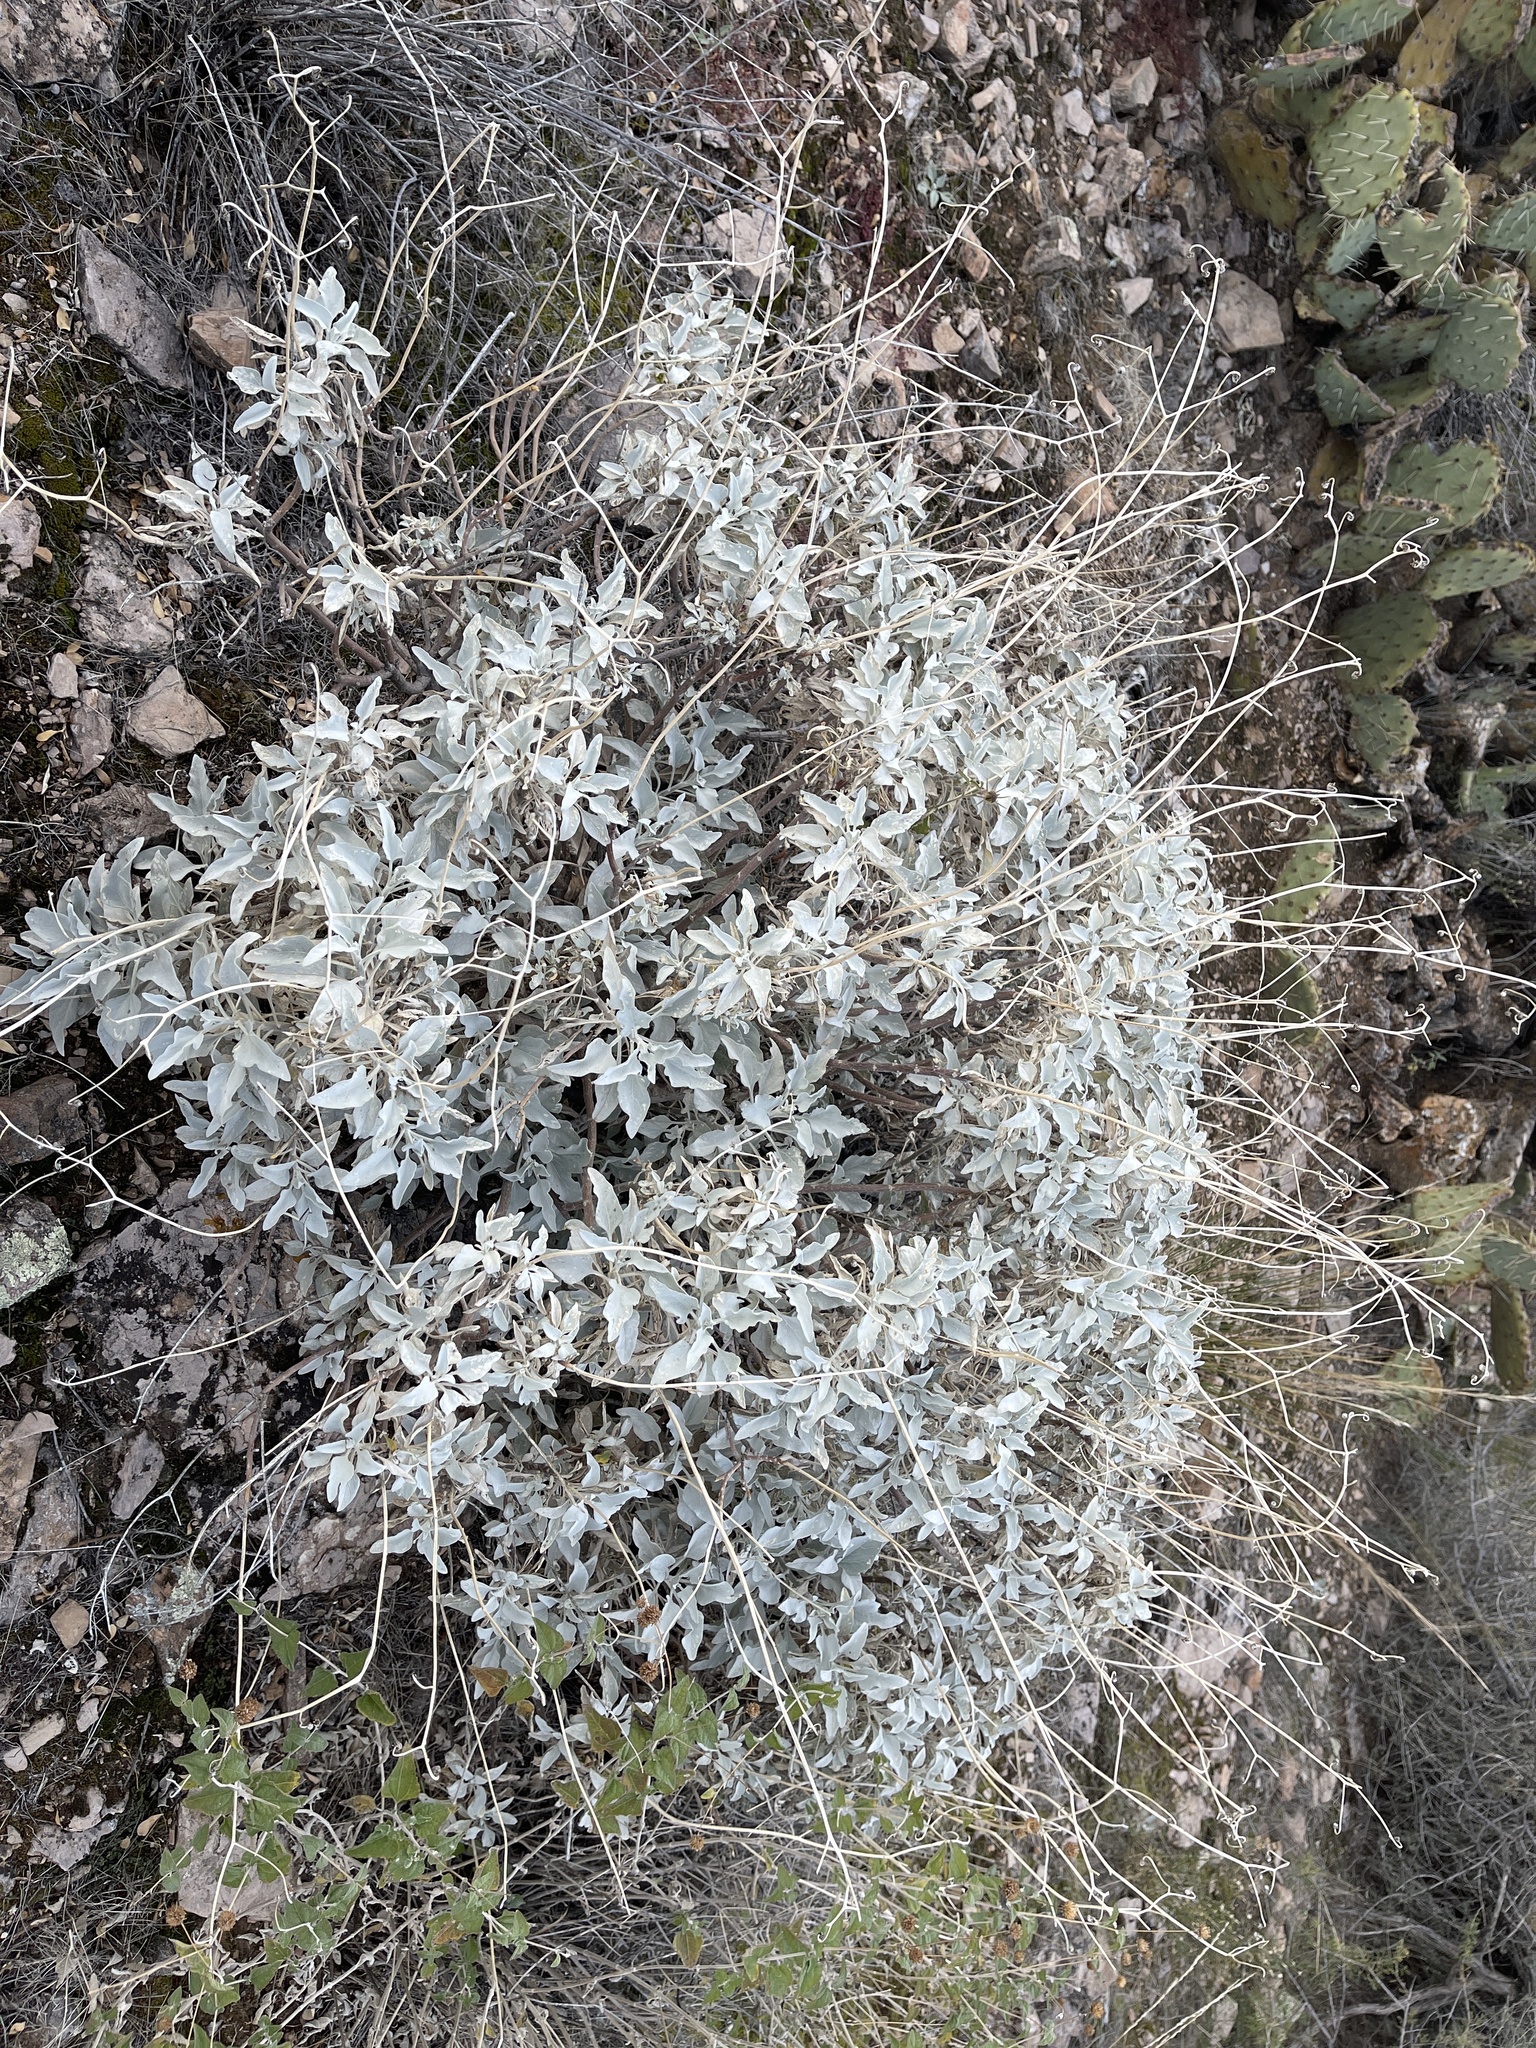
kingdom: Plantae
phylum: Tracheophyta
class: Magnoliopsida
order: Asterales
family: Asteraceae
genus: Encelia
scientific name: Encelia farinosa
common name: Brittlebush
